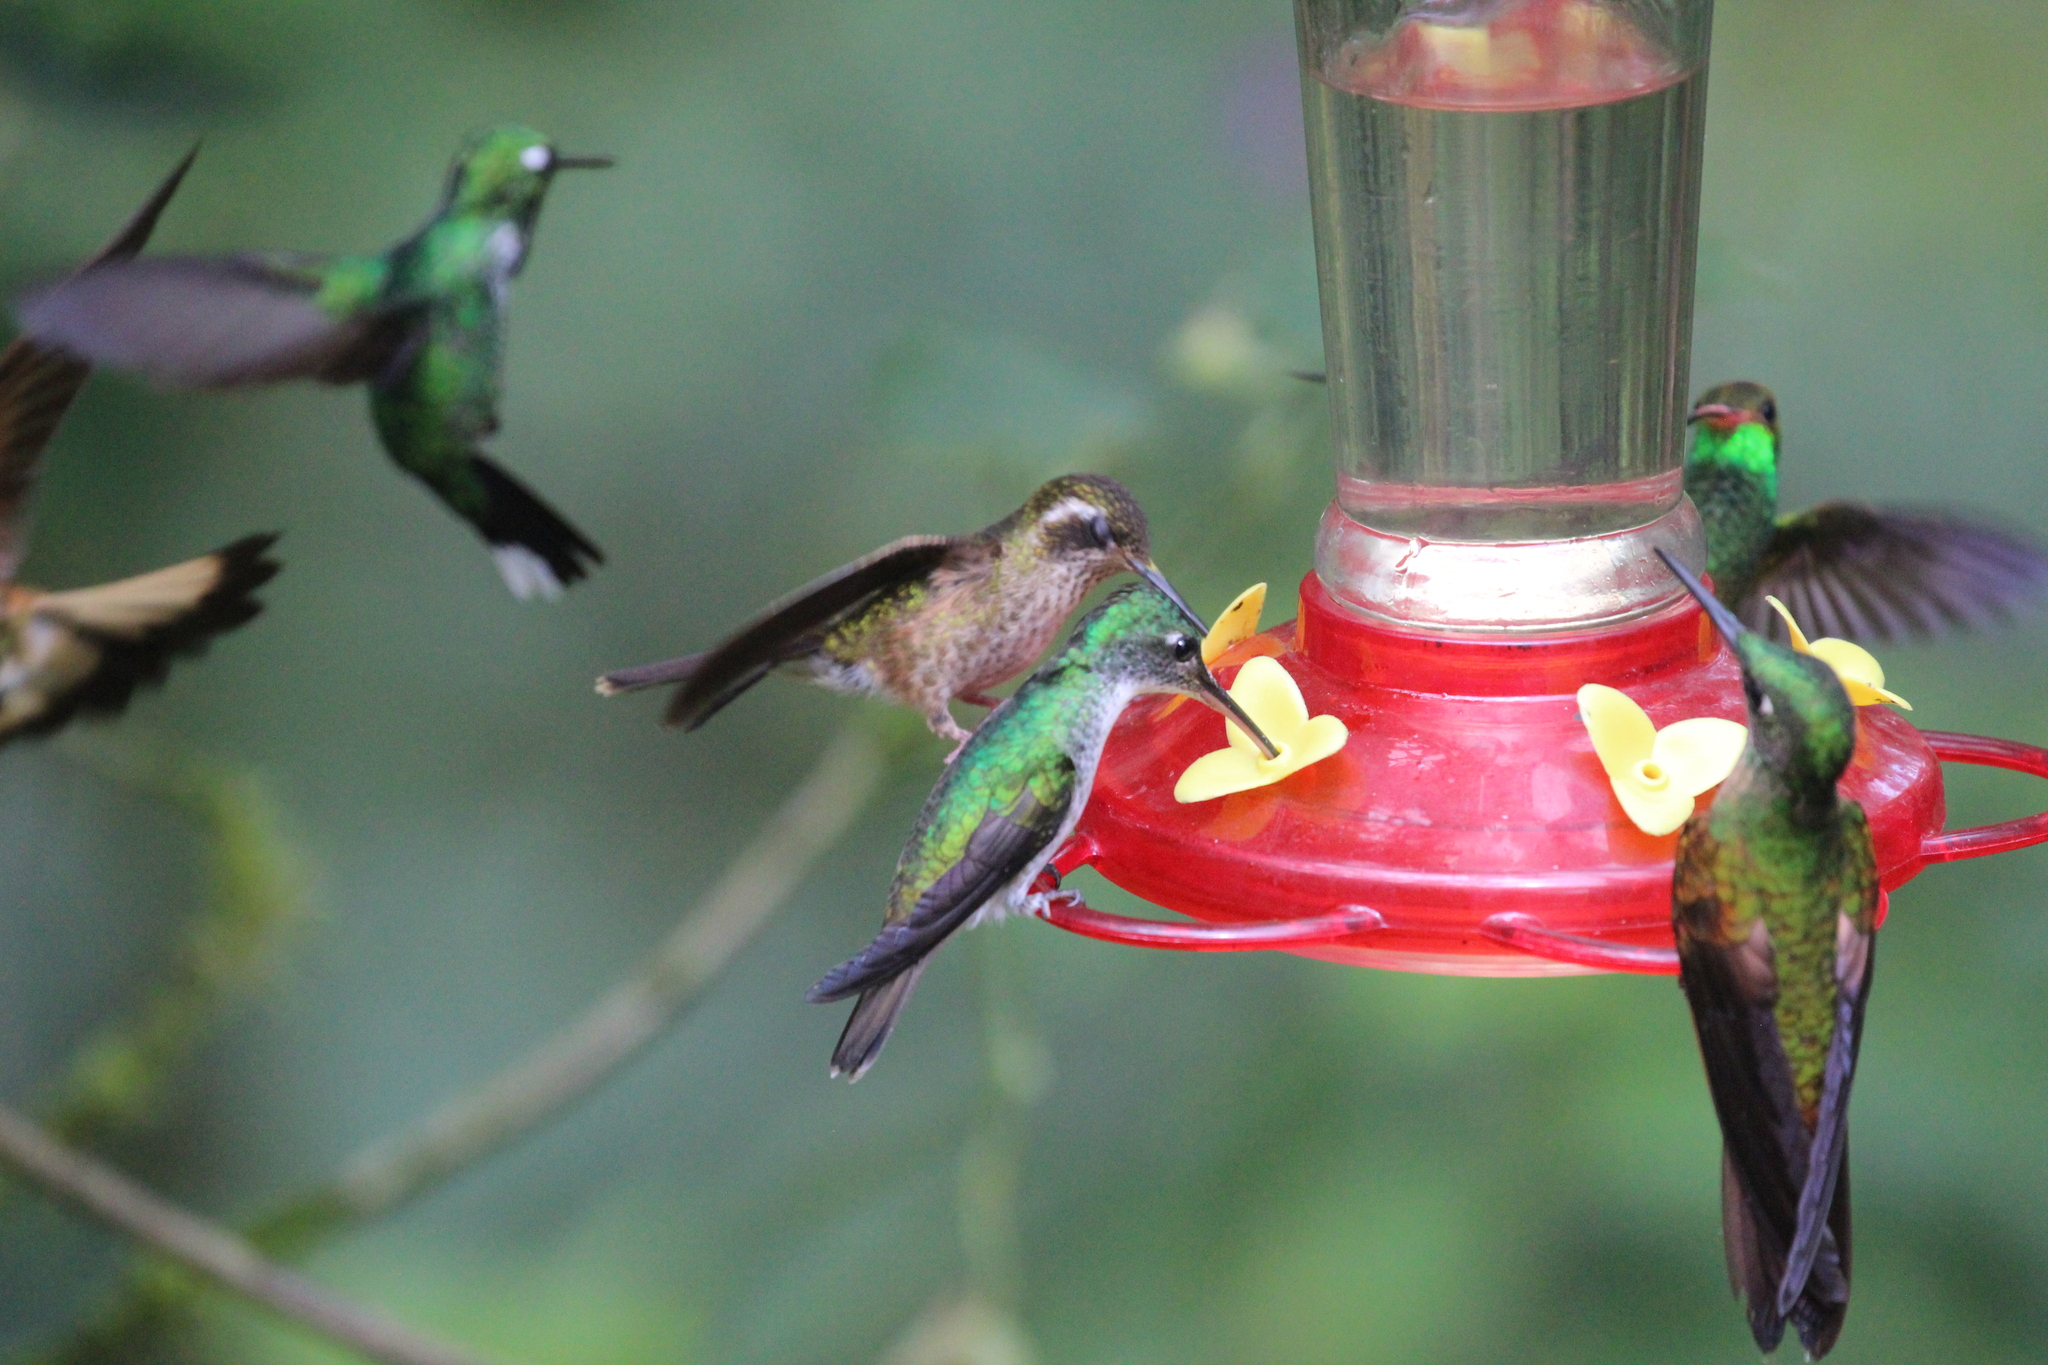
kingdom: Animalia
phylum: Chordata
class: Aves
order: Apodiformes
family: Trochilidae
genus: Adelomyia
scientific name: Adelomyia melanogenys
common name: Speckled hummingbird
